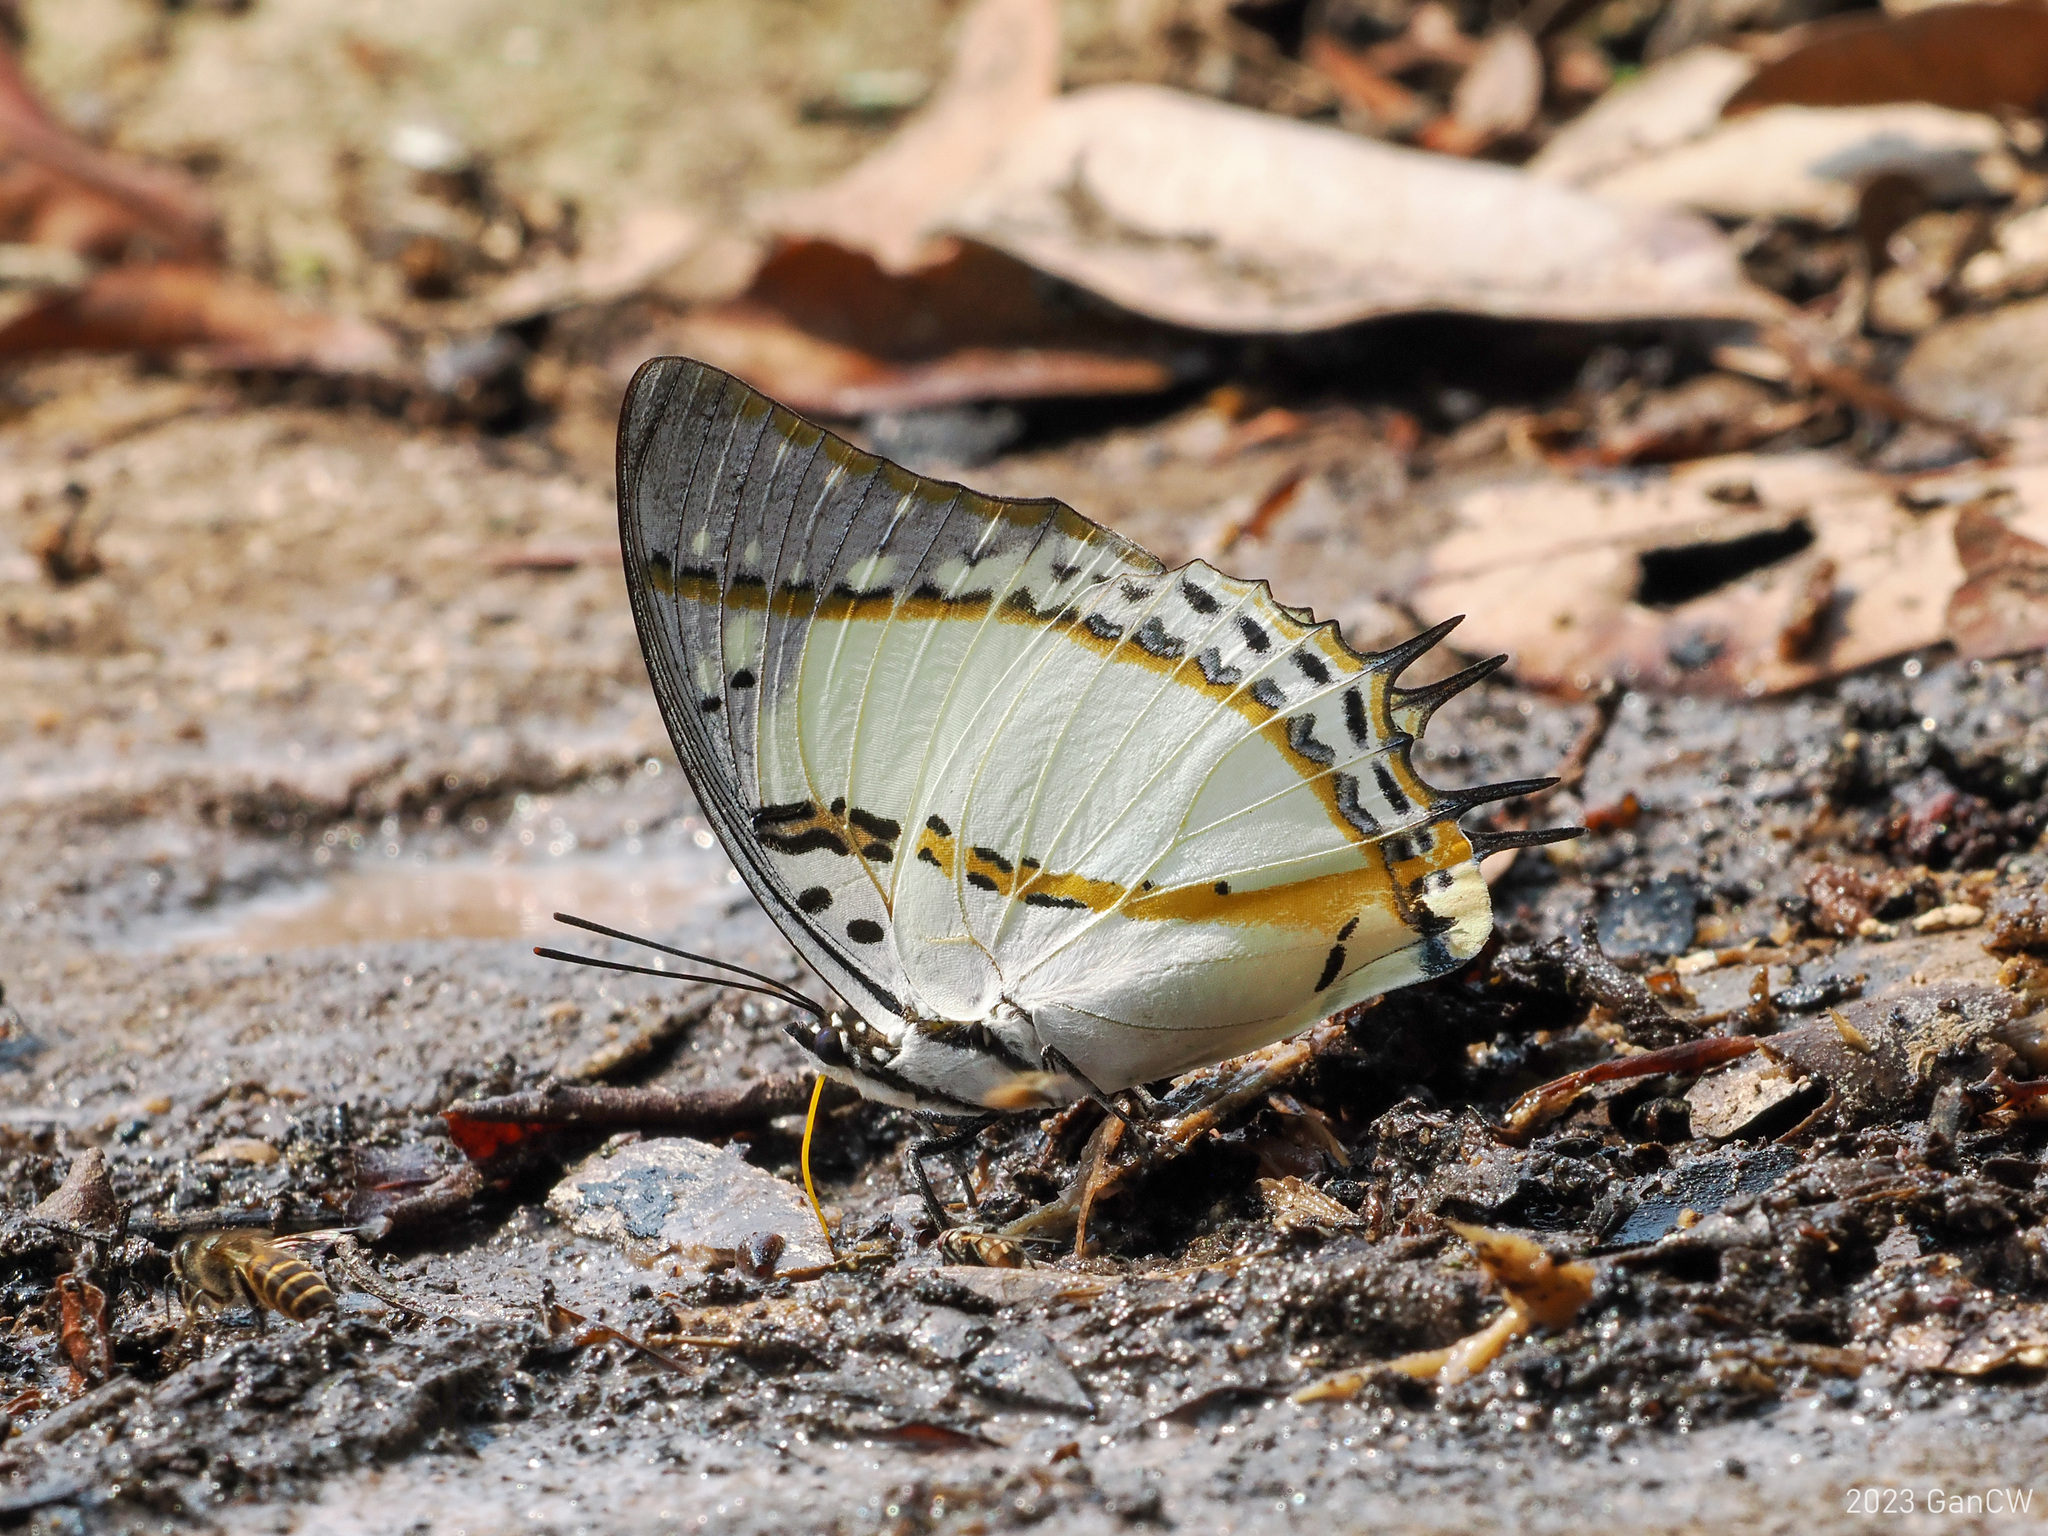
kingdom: Animalia
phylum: Arthropoda
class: Insecta
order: Lepidoptera
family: Nymphalidae
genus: Polyura
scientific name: Polyura nepenthes
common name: Shan nawab
